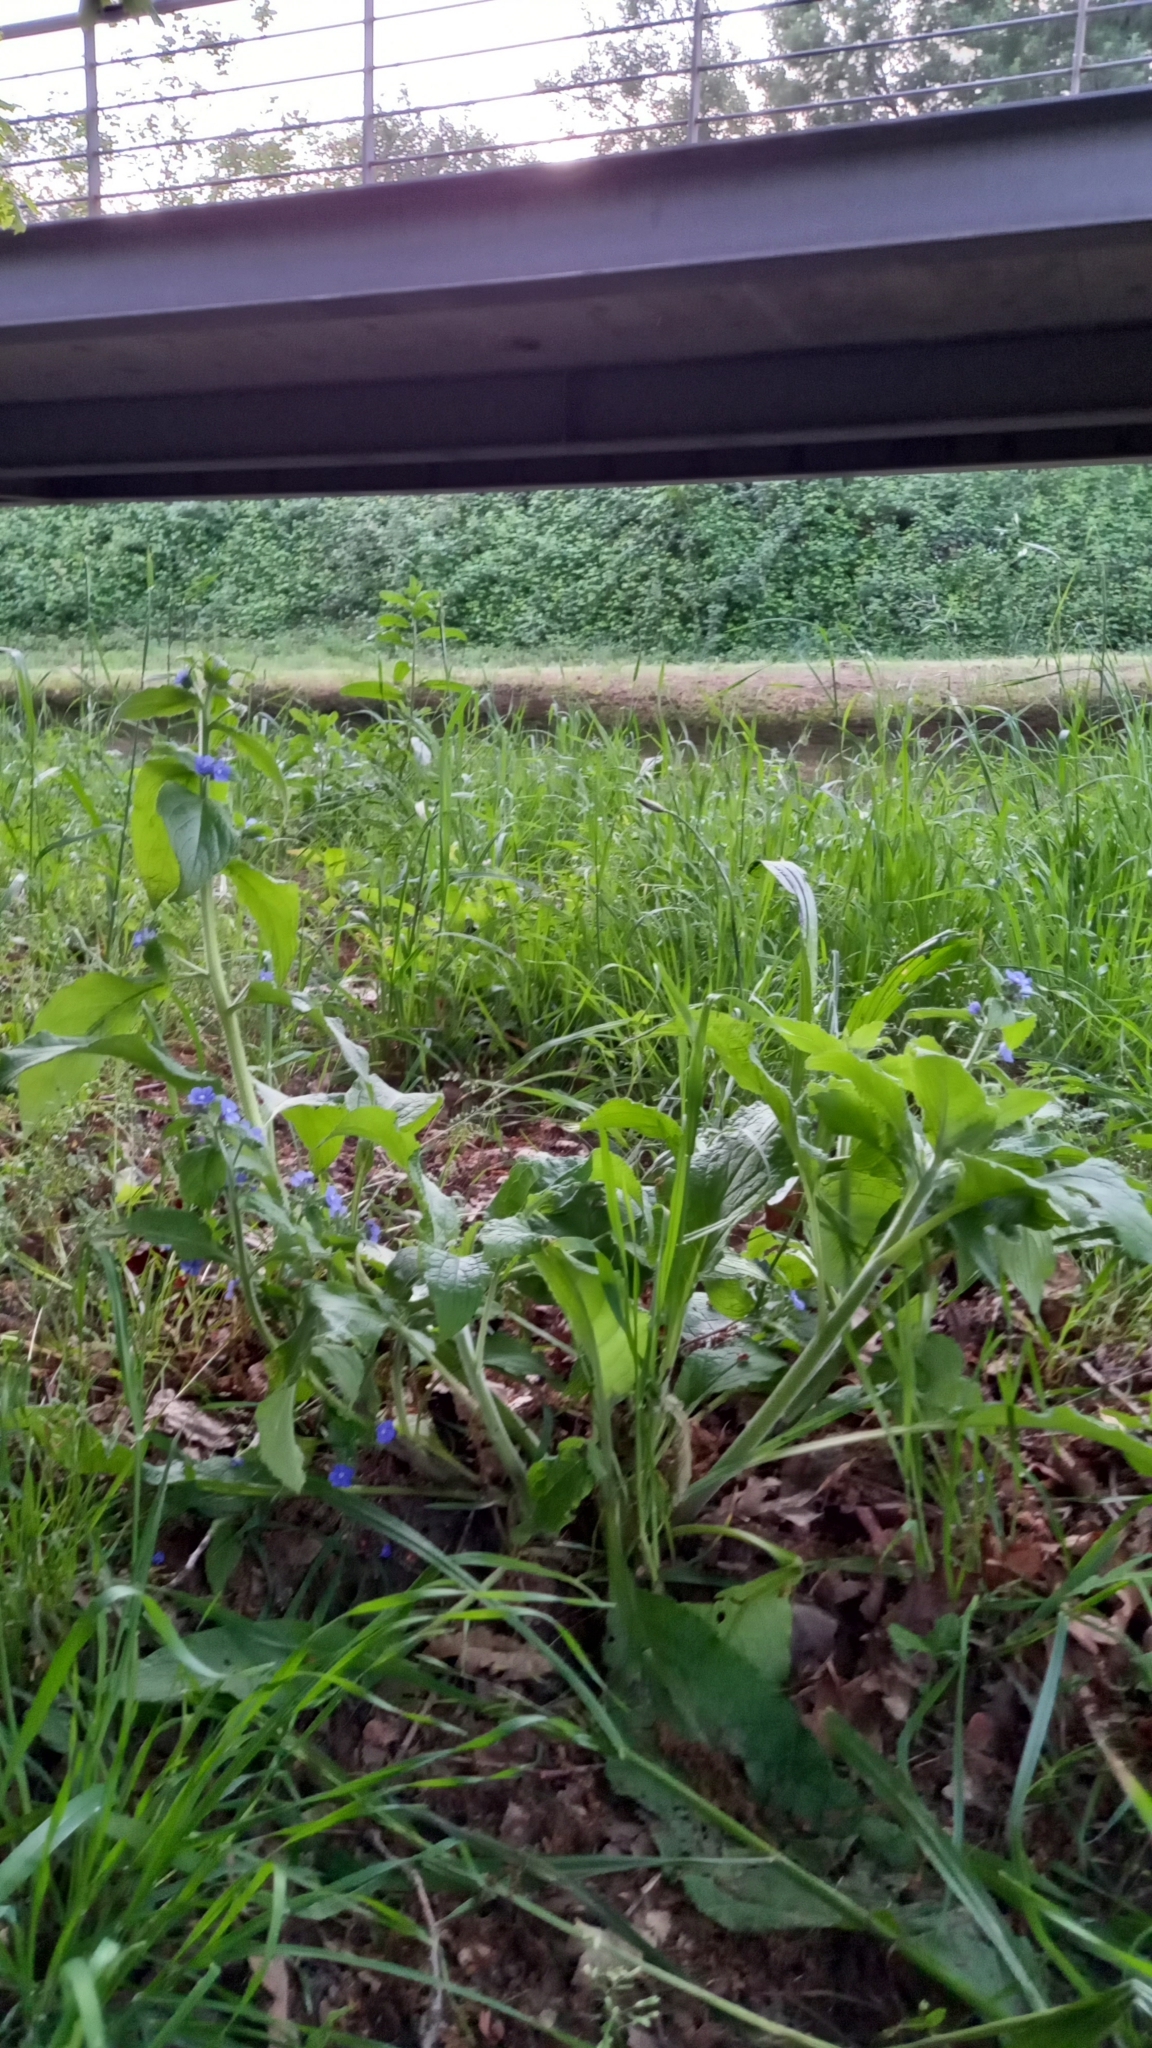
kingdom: Plantae
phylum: Tracheophyta
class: Magnoliopsida
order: Boraginales
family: Boraginaceae
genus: Pentaglottis
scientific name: Pentaglottis sempervirens
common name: Green alkanet
